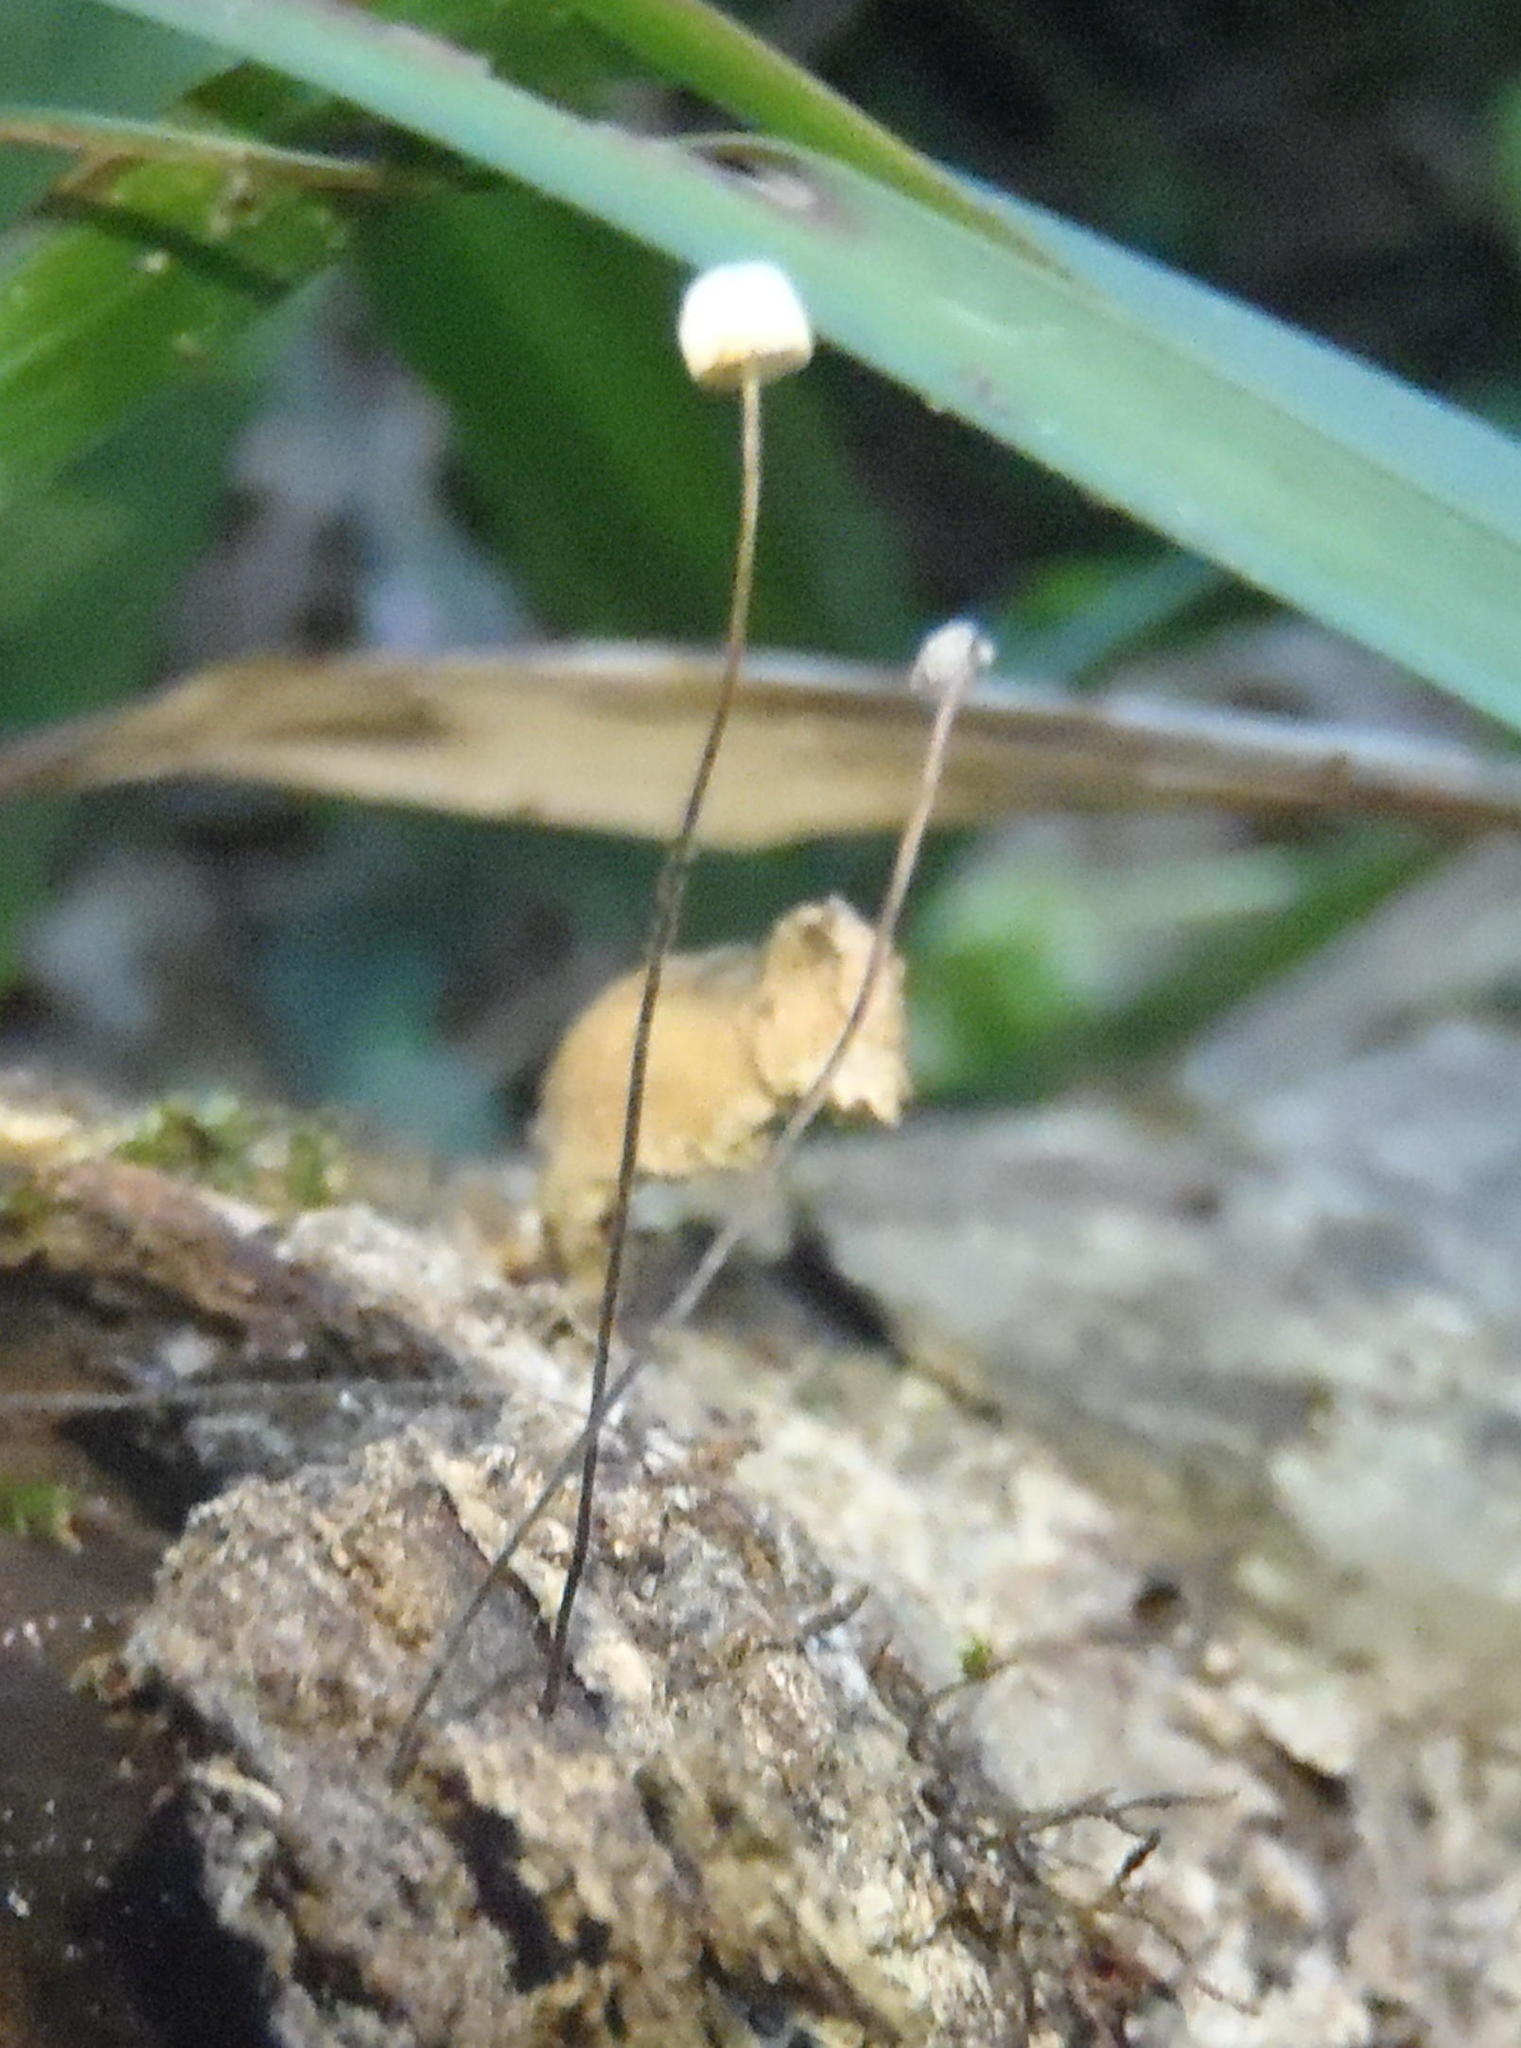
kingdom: Fungi
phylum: Basidiomycota
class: Agaricomycetes
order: Agaricales
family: Omphalotaceae
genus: Gymnopus
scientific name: Gymnopus androsaceus
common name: Horse-hair fungus
